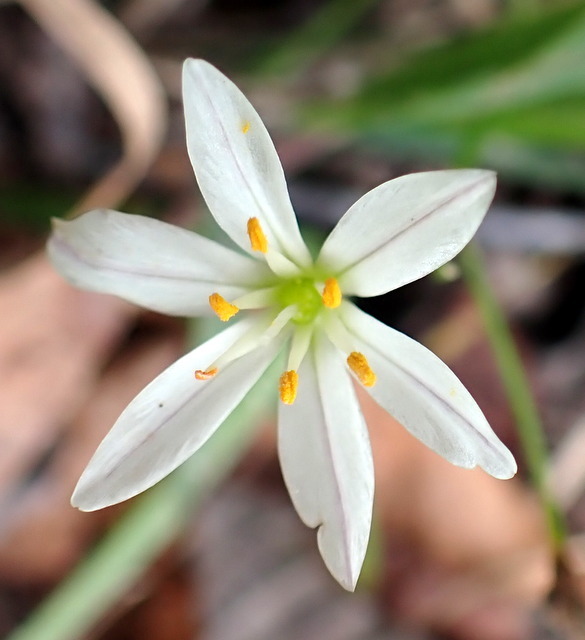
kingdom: Plantae
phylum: Tracheophyta
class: Liliopsida
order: Asparagales
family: Amaryllidaceae
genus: Nothoscordum
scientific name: Nothoscordum bivalve
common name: Crow-poison
